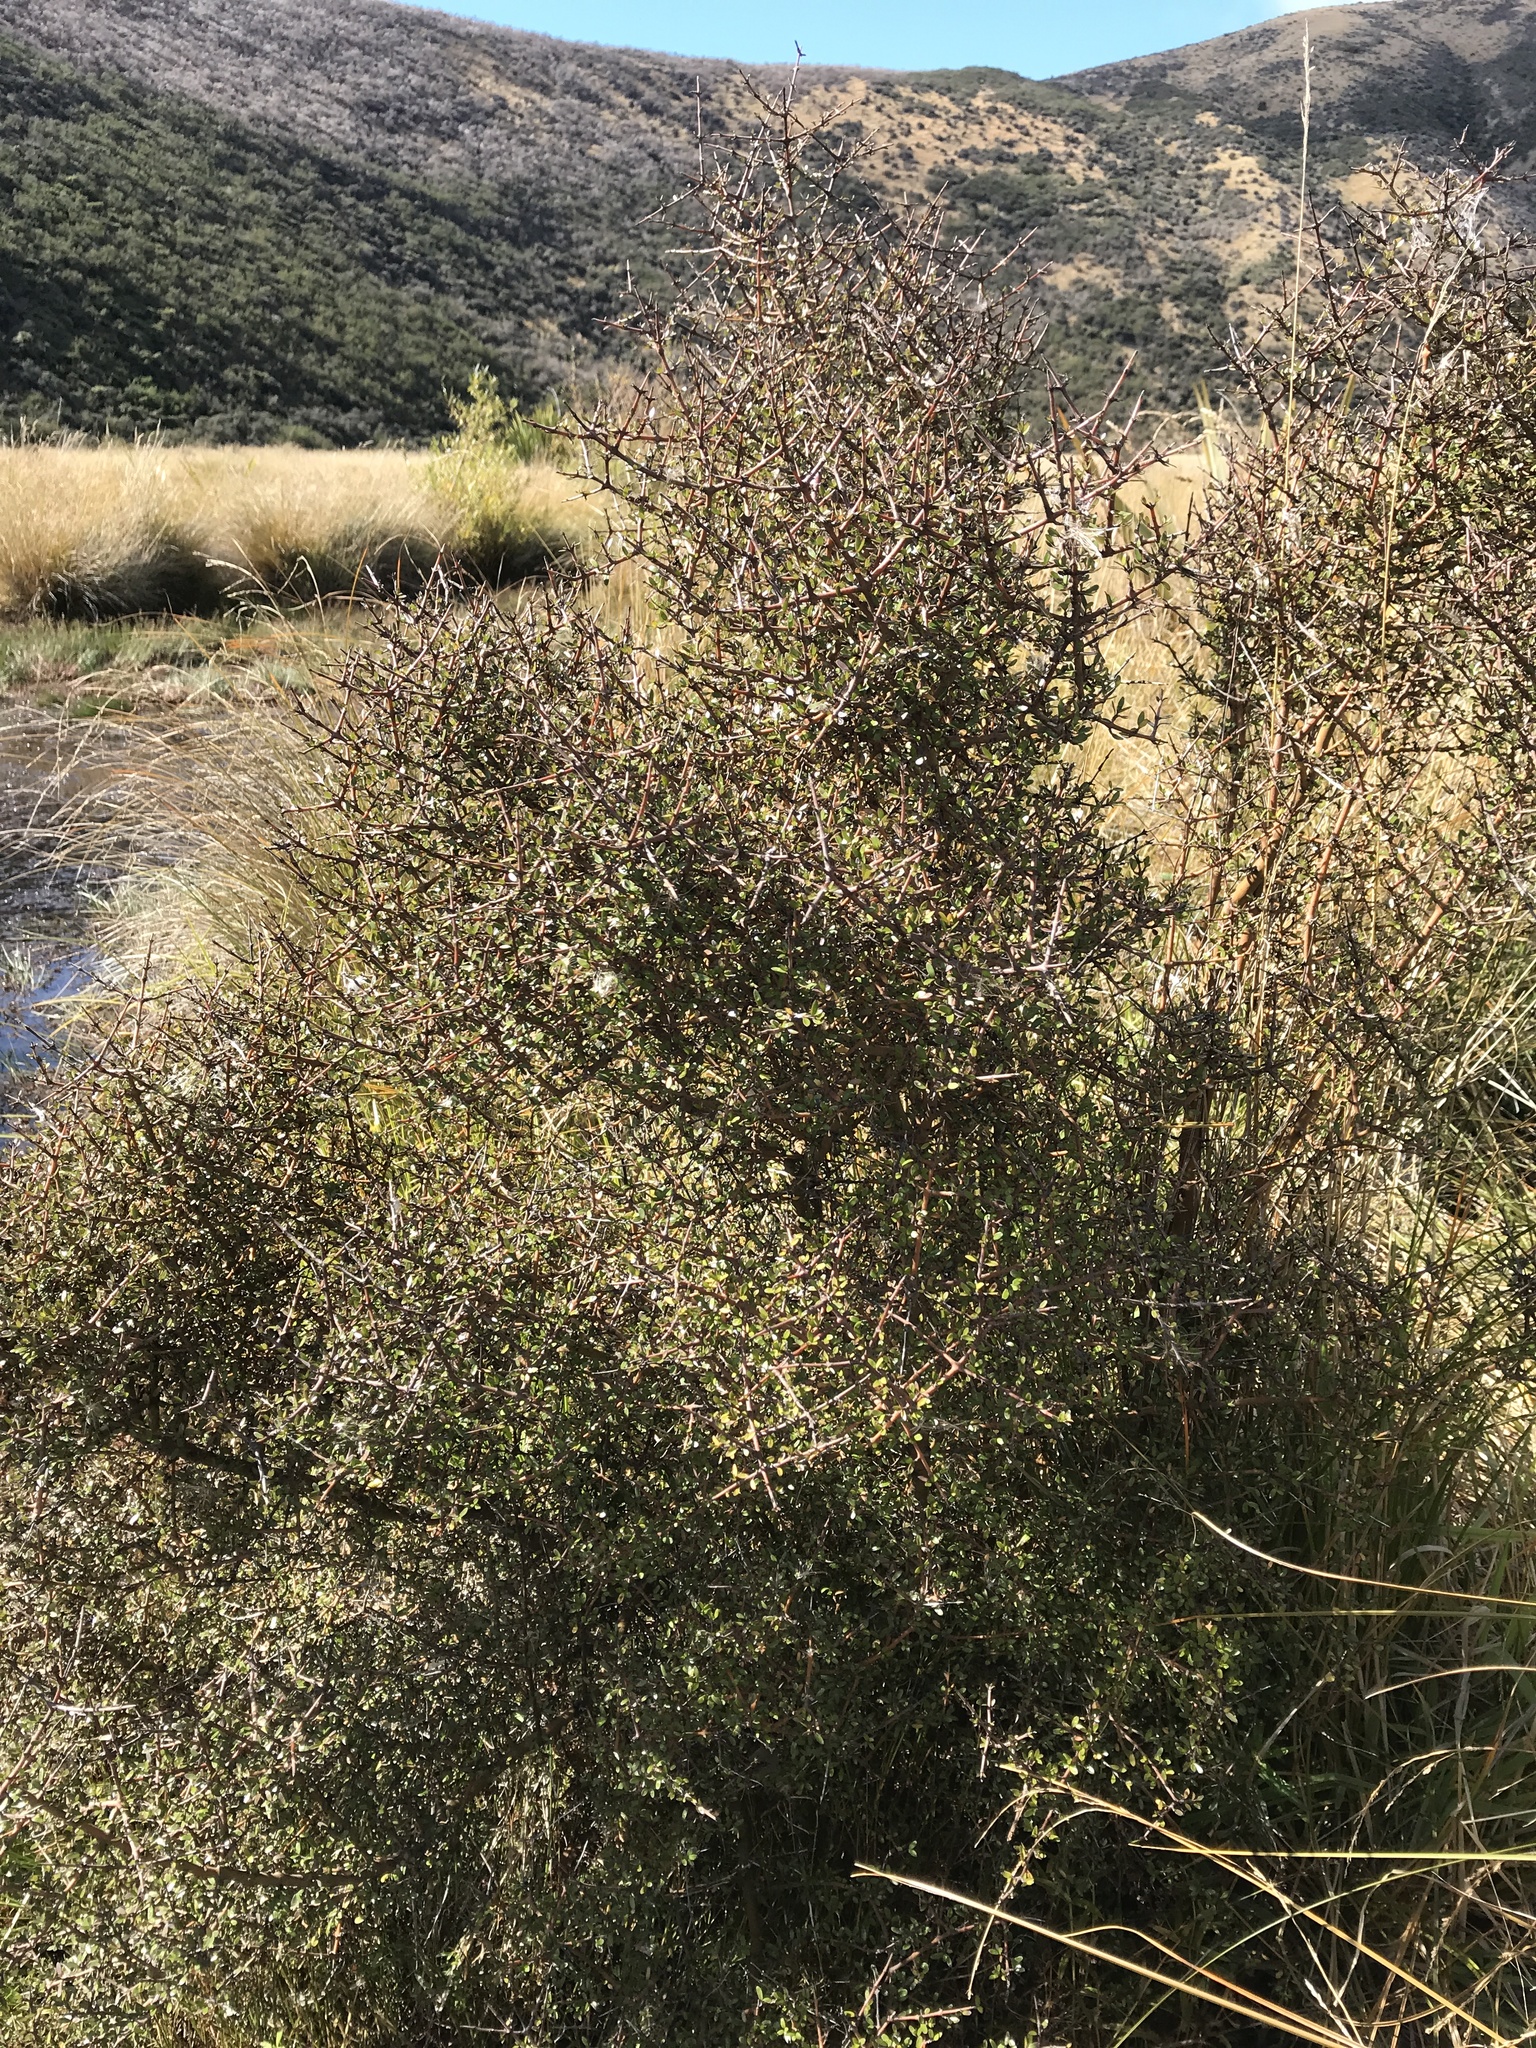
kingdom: Plantae
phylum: Tracheophyta
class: Magnoliopsida
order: Gentianales
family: Rubiaceae
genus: Coprosma
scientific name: Coprosma propinqua
